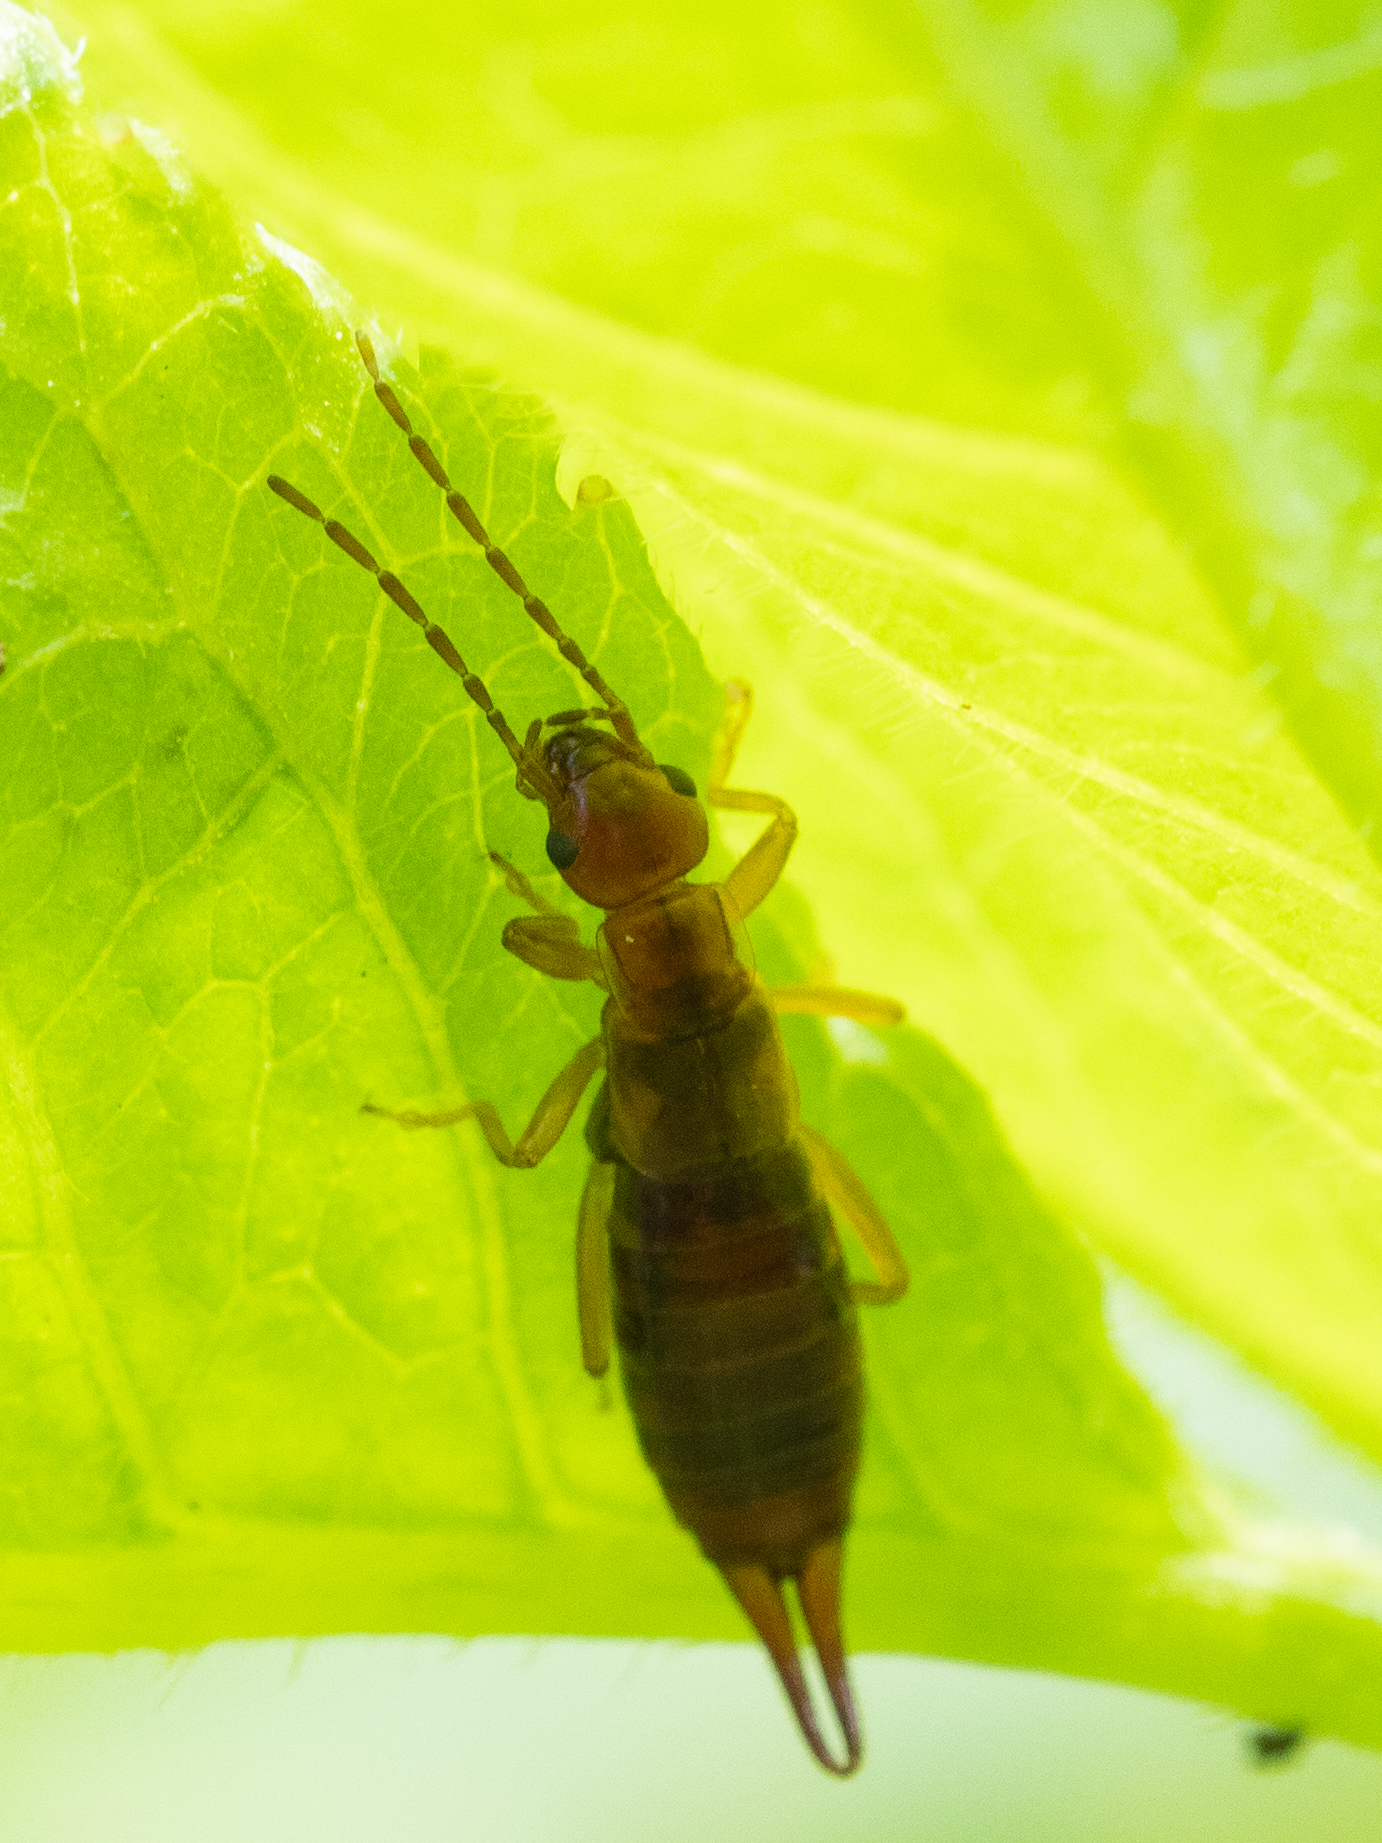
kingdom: Animalia
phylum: Arthropoda
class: Insecta
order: Dermaptera
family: Forficulidae
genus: Apterygida
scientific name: Apterygida albipennis
